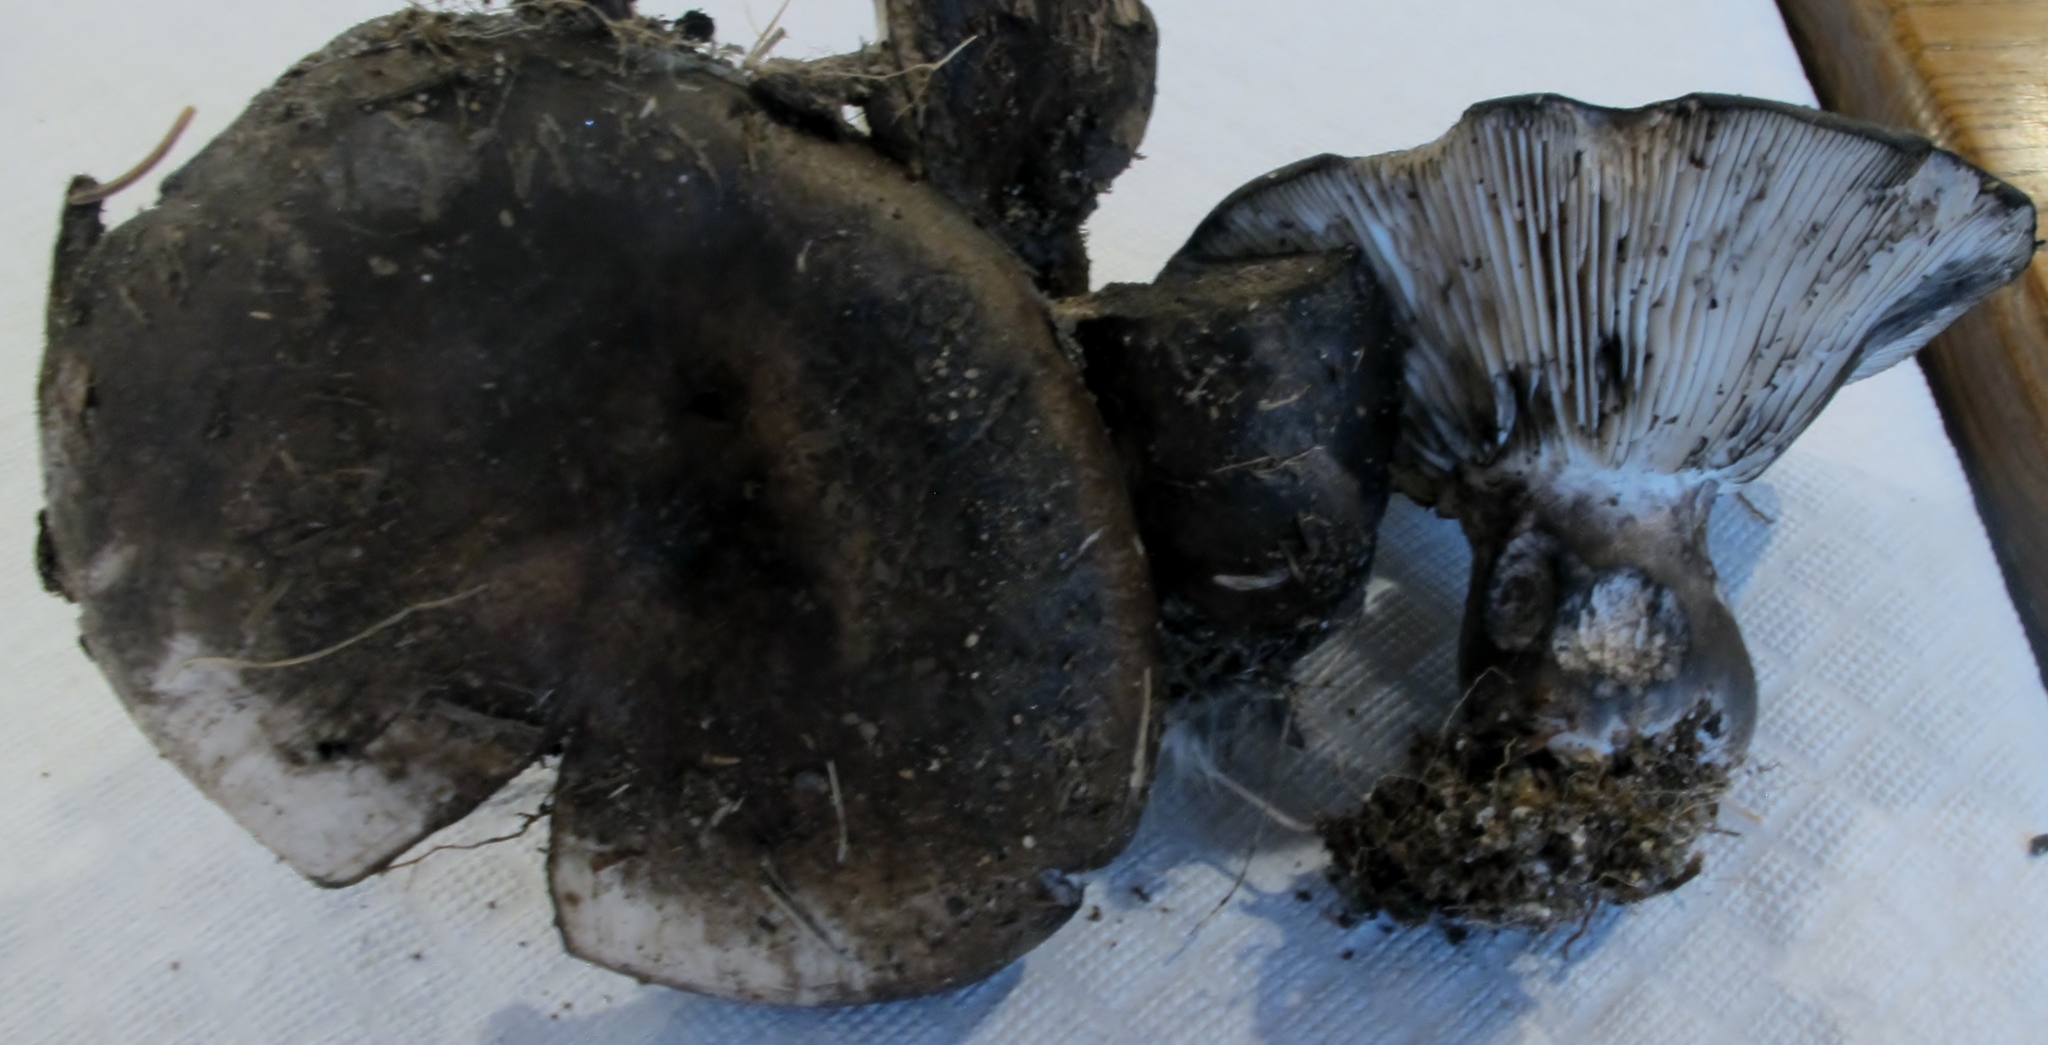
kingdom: Fungi
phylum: Basidiomycota
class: Agaricomycetes
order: Russulales
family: Russulaceae
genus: Russula
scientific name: Russula albonigra
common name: Menthol brittlegill
